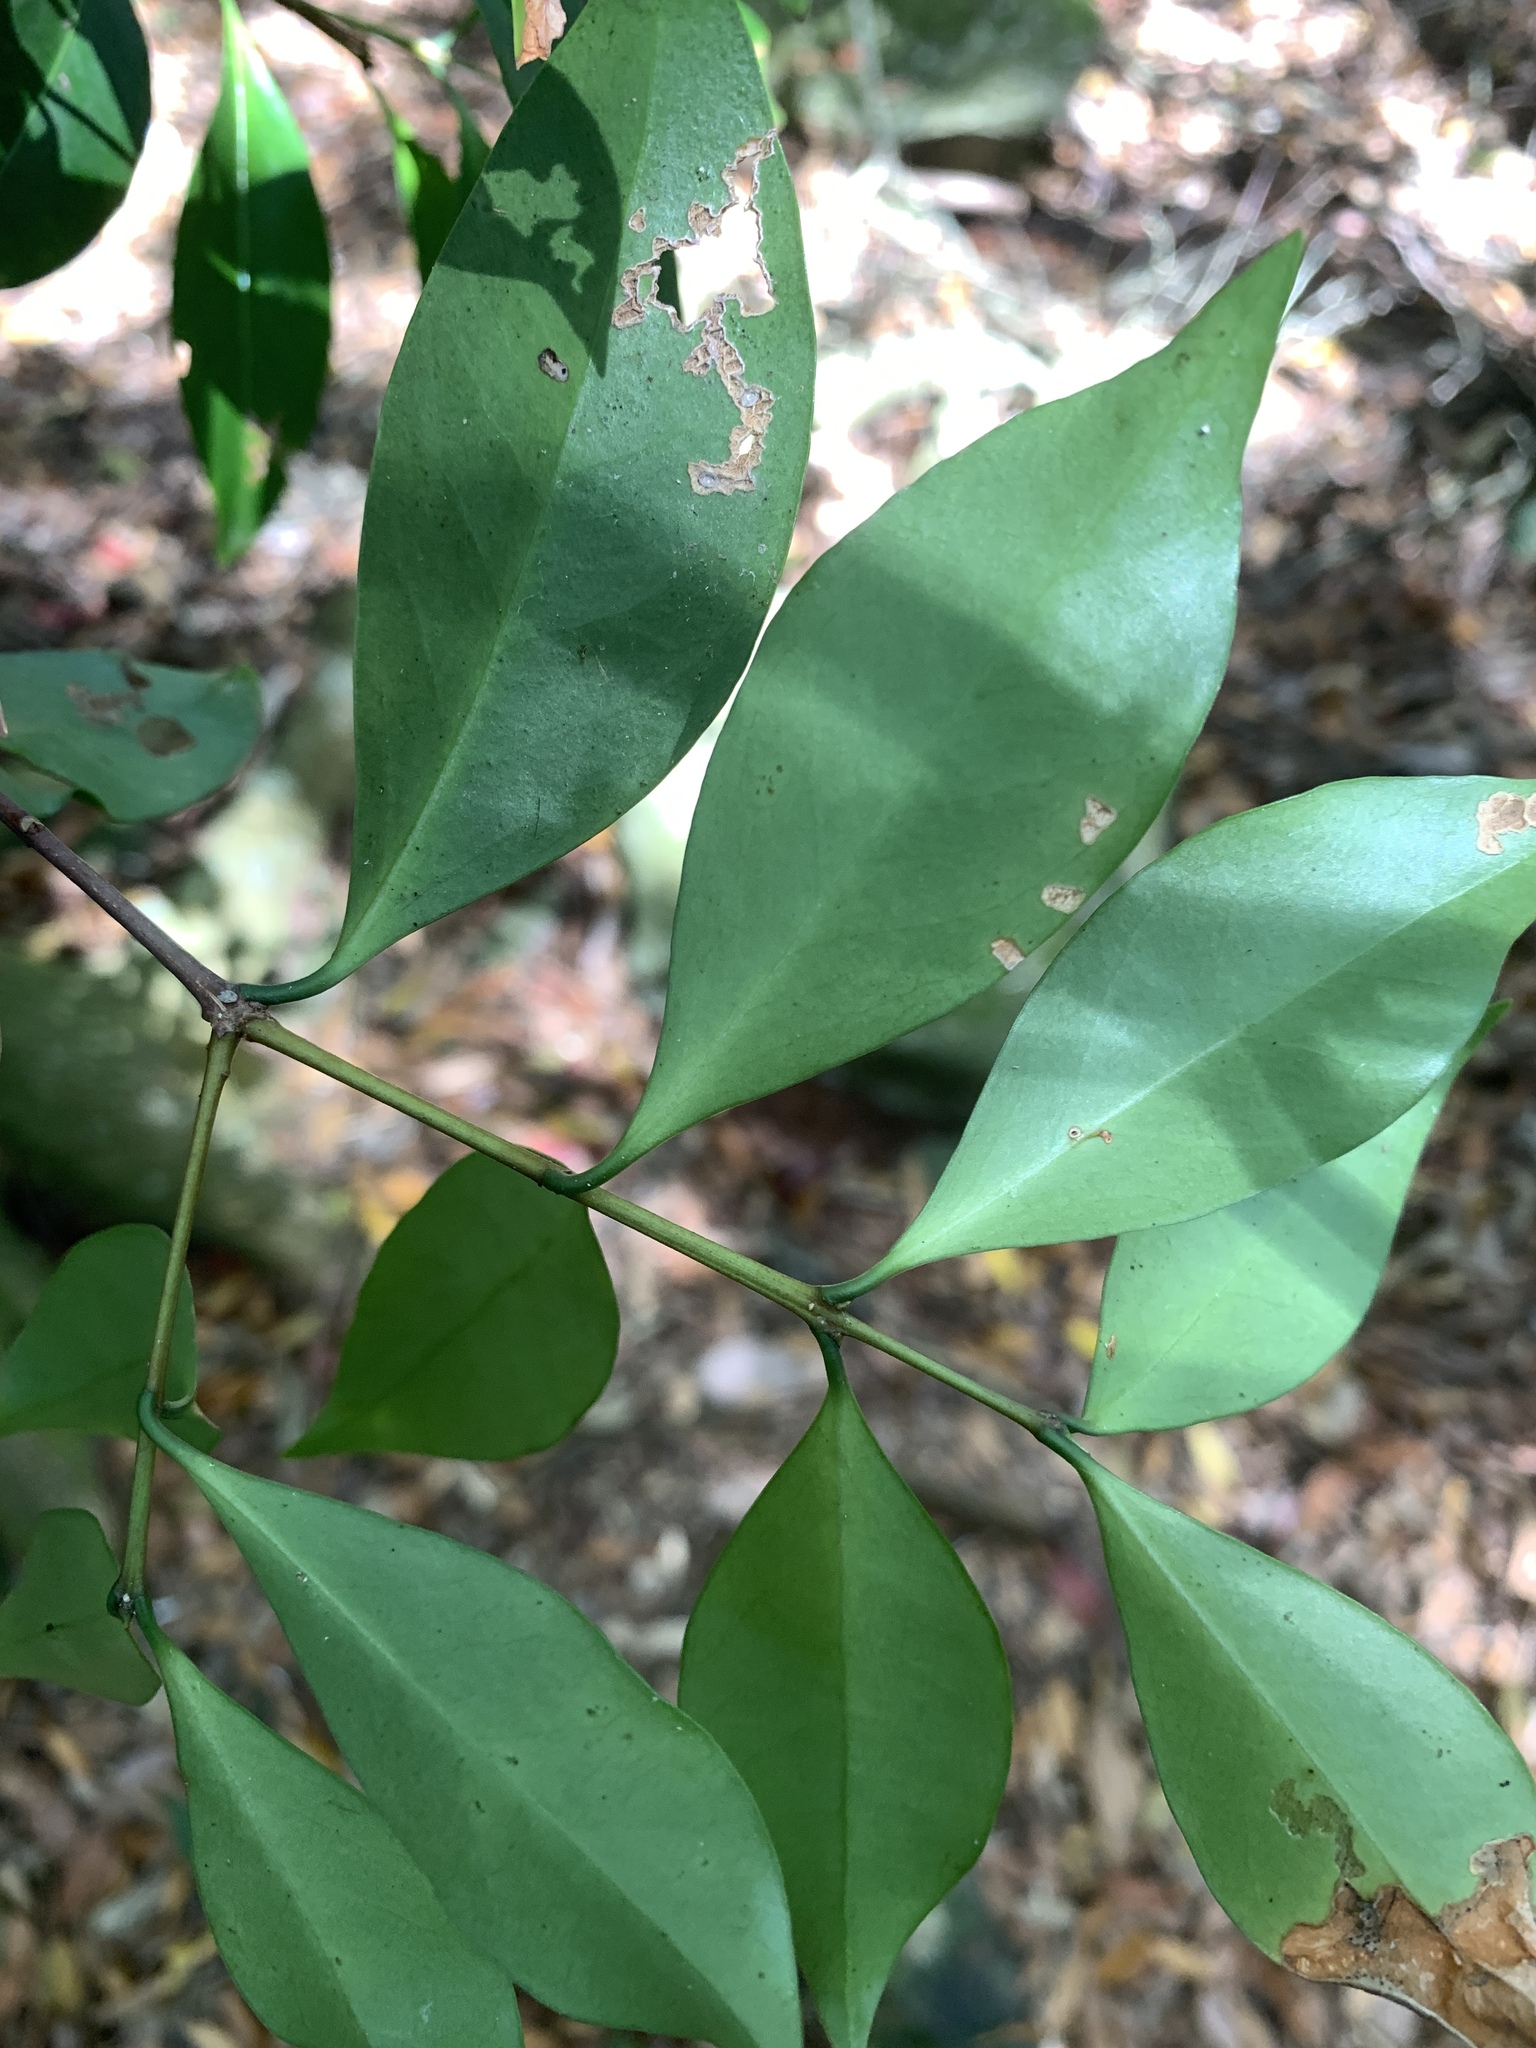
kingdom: Plantae
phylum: Tracheophyta
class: Magnoliopsida
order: Celastrales
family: Celastraceae
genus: Microtropis
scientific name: Microtropis yunnanensis
